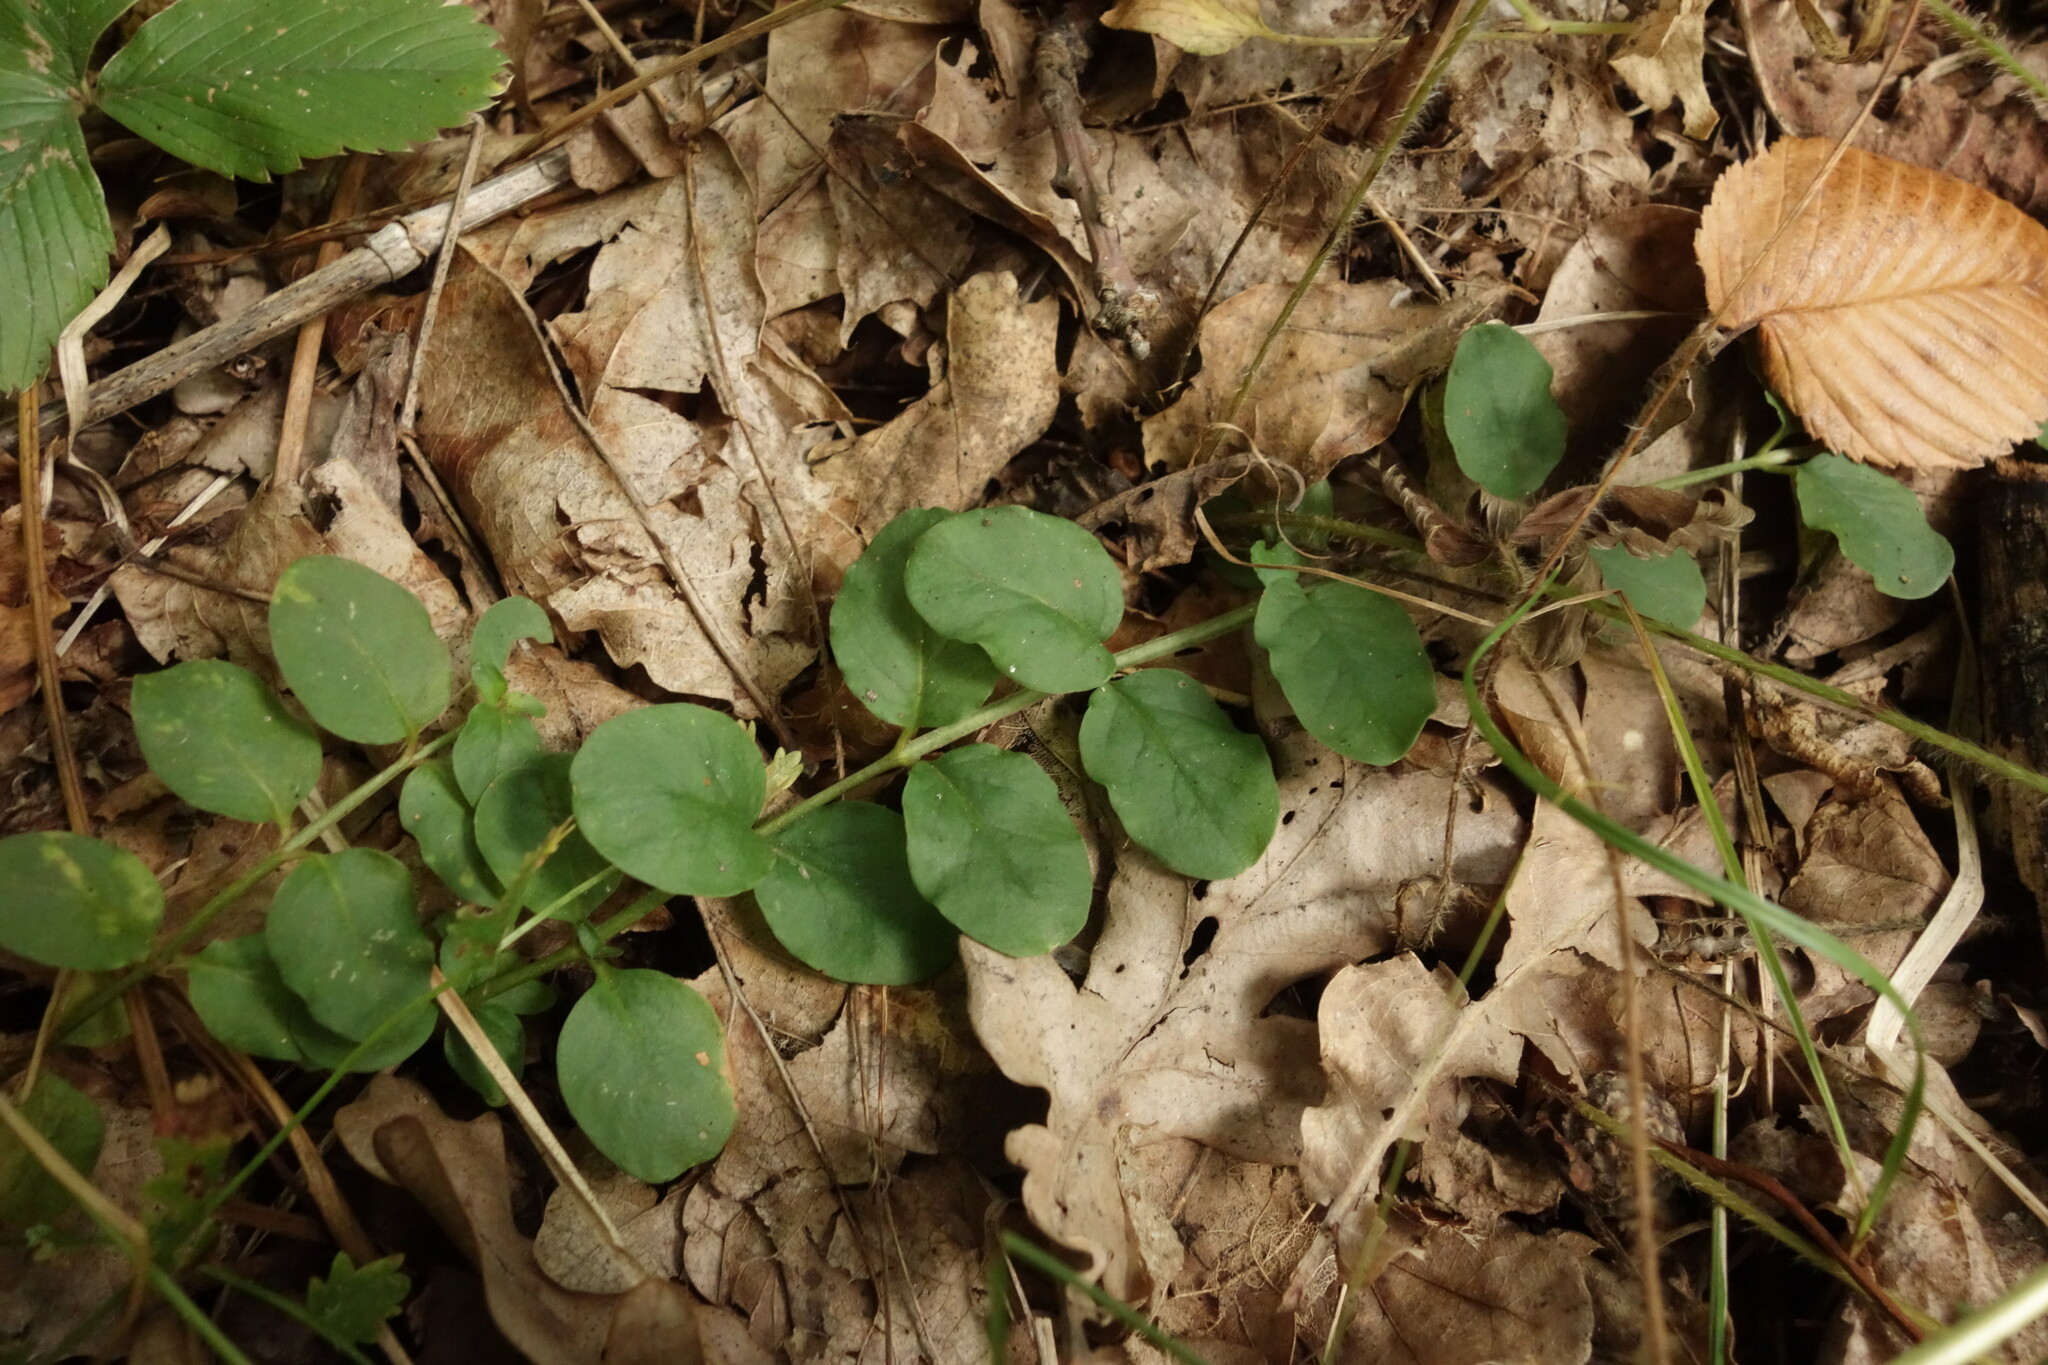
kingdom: Plantae
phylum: Tracheophyta
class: Magnoliopsida
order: Ericales
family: Primulaceae
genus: Lysimachia
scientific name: Lysimachia nummularia
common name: Moneywort
